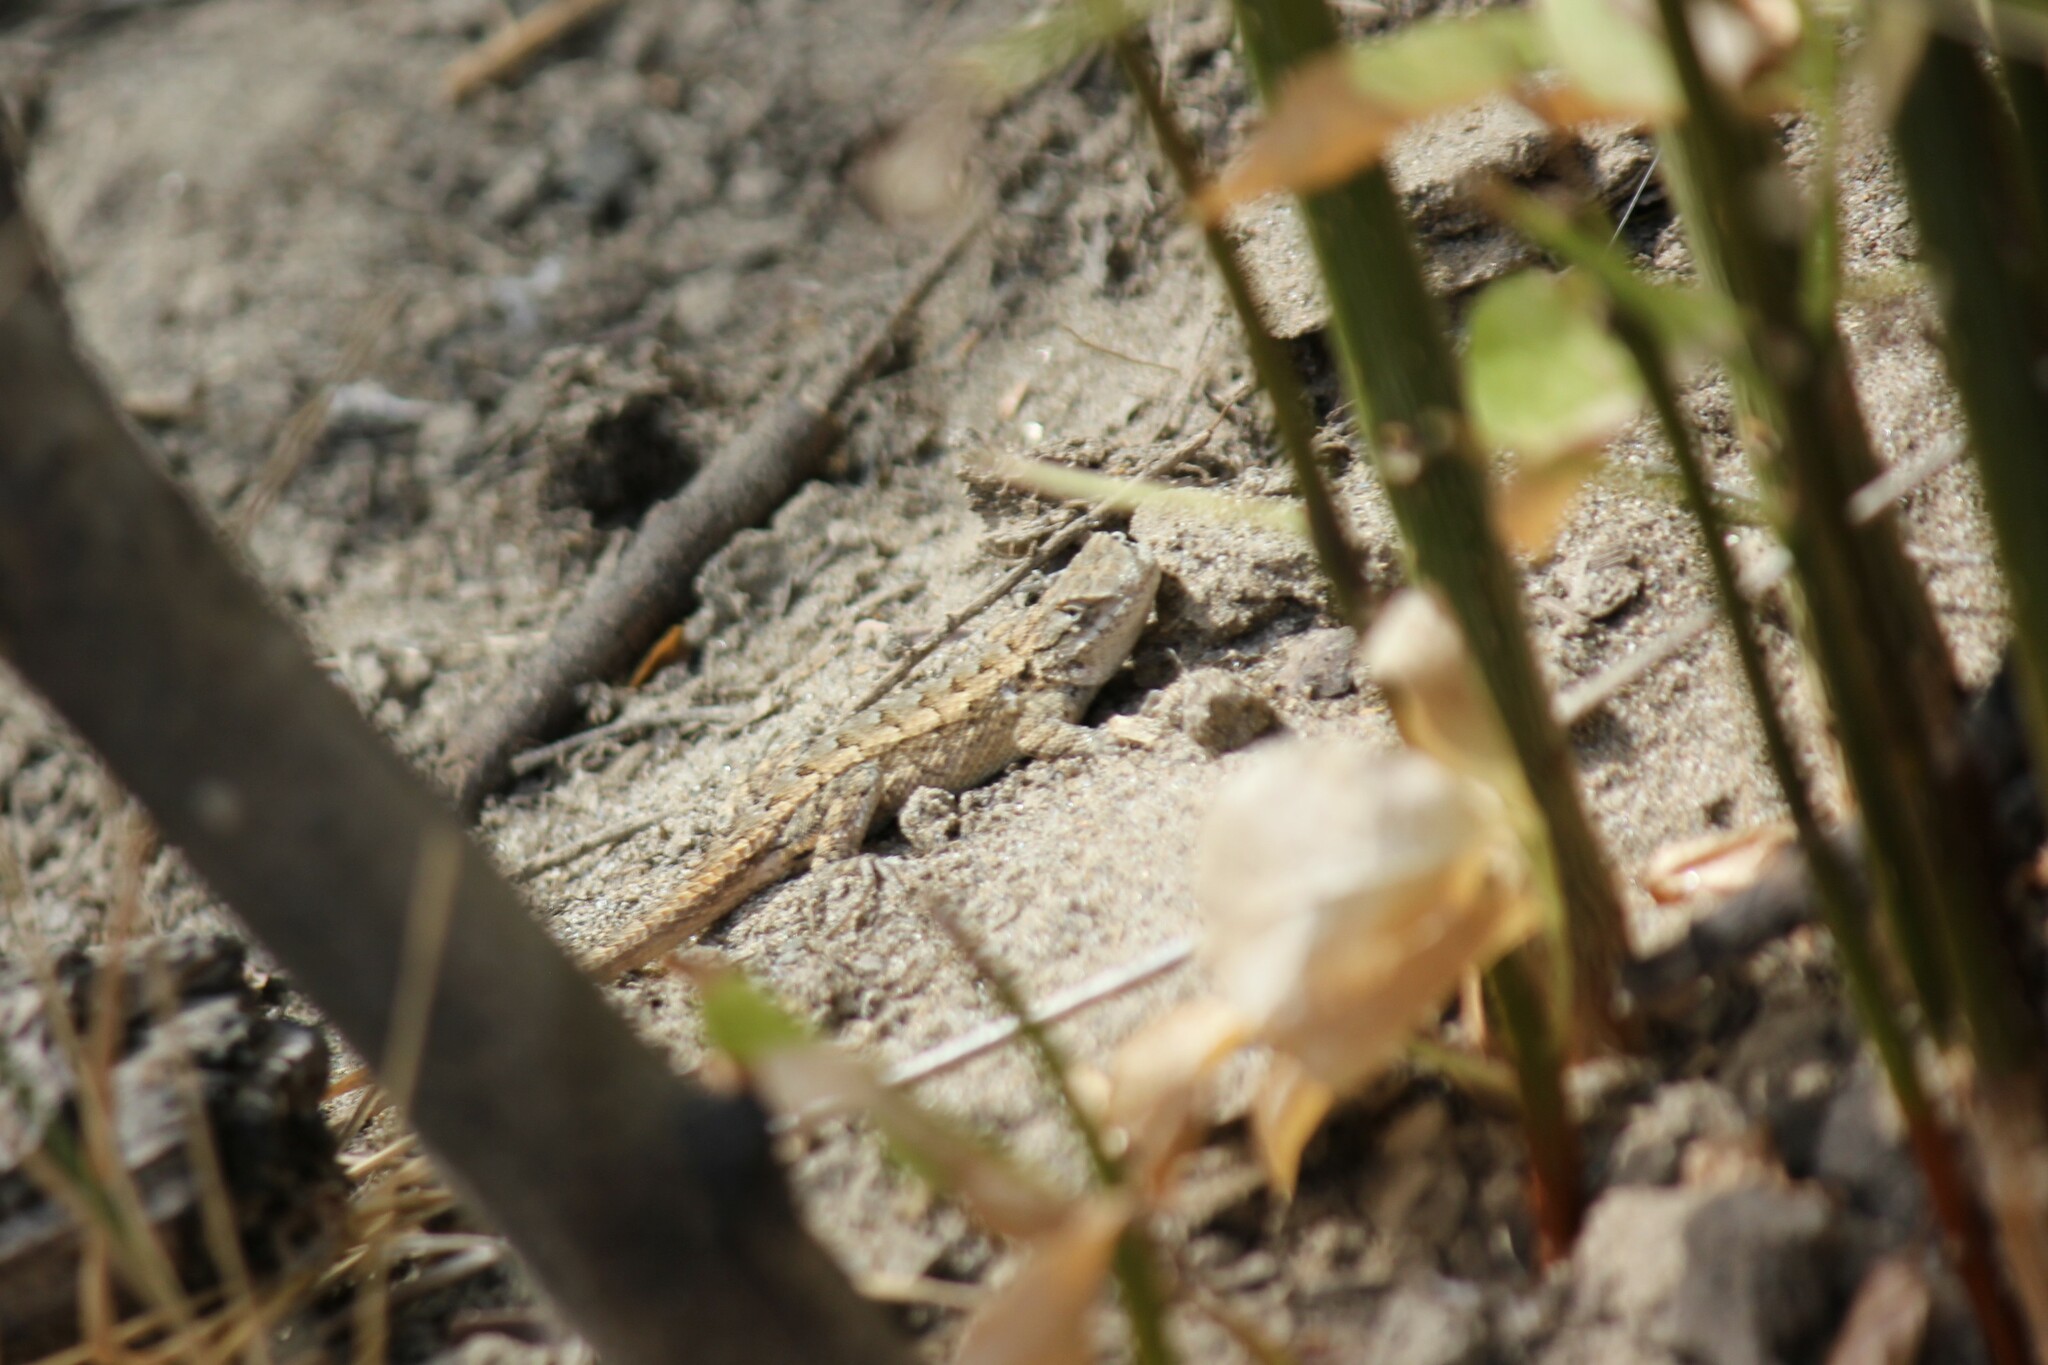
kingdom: Animalia
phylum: Chordata
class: Squamata
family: Phrynosomatidae
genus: Sceloporus
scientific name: Sceloporus occidentalis
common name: Western fence lizard
